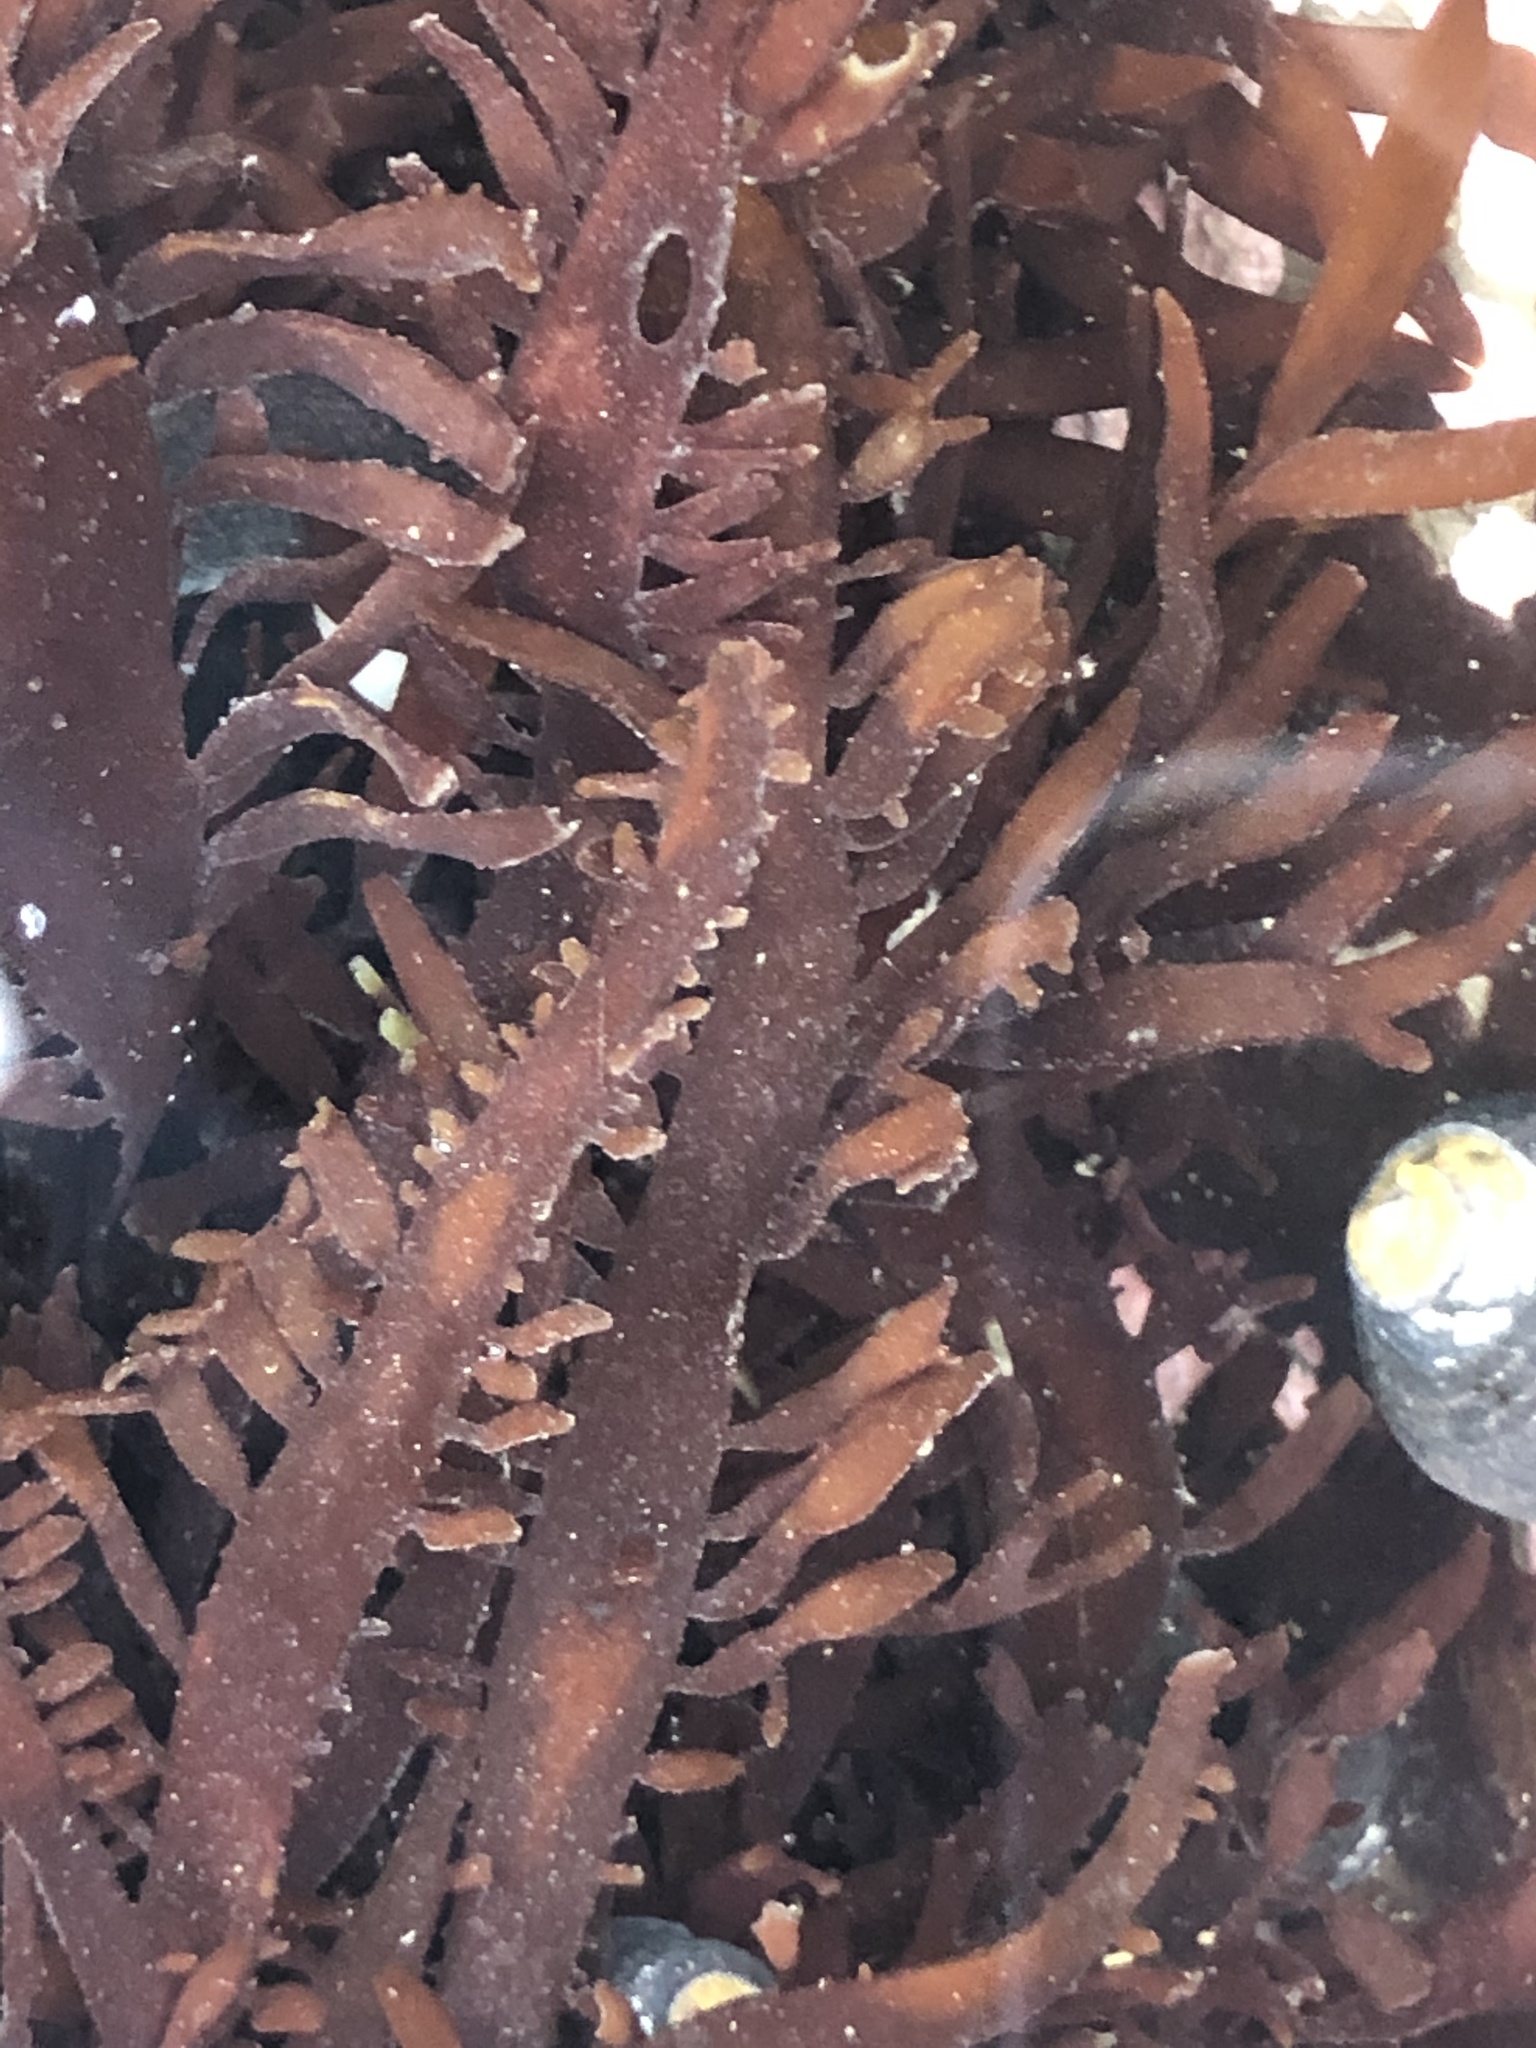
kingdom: Plantae
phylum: Rhodophyta
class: Florideophyceae
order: Halymeniales
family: Halymeniaceae
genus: Grateloupia
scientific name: Grateloupia Prionitis lanceolata
